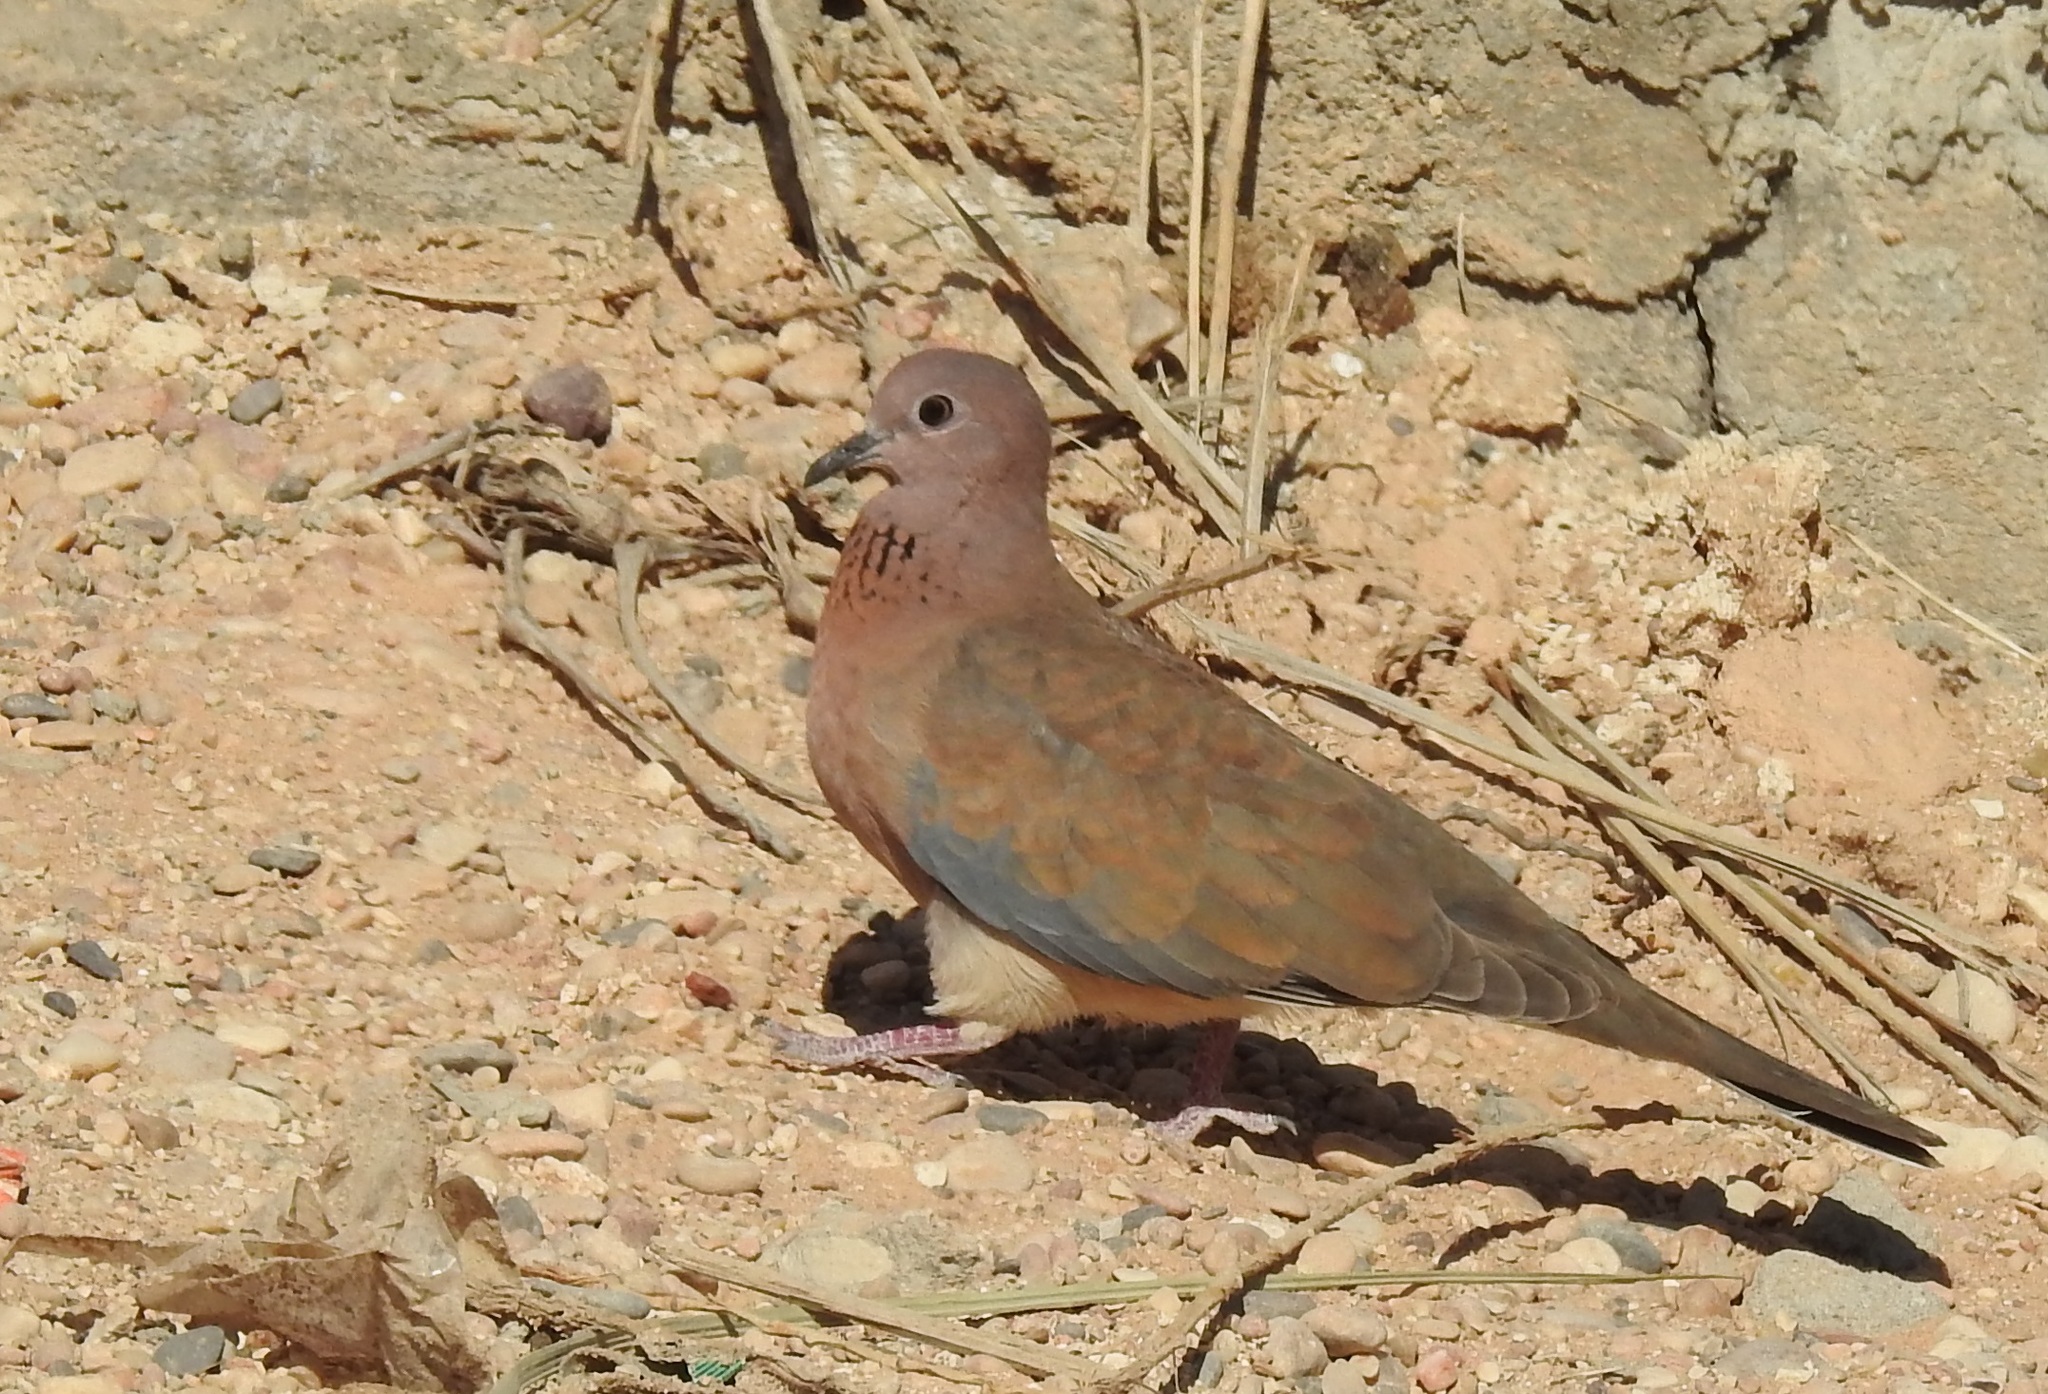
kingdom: Animalia
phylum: Chordata
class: Aves
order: Columbiformes
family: Columbidae
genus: Spilopelia
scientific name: Spilopelia senegalensis
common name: Laughing dove
